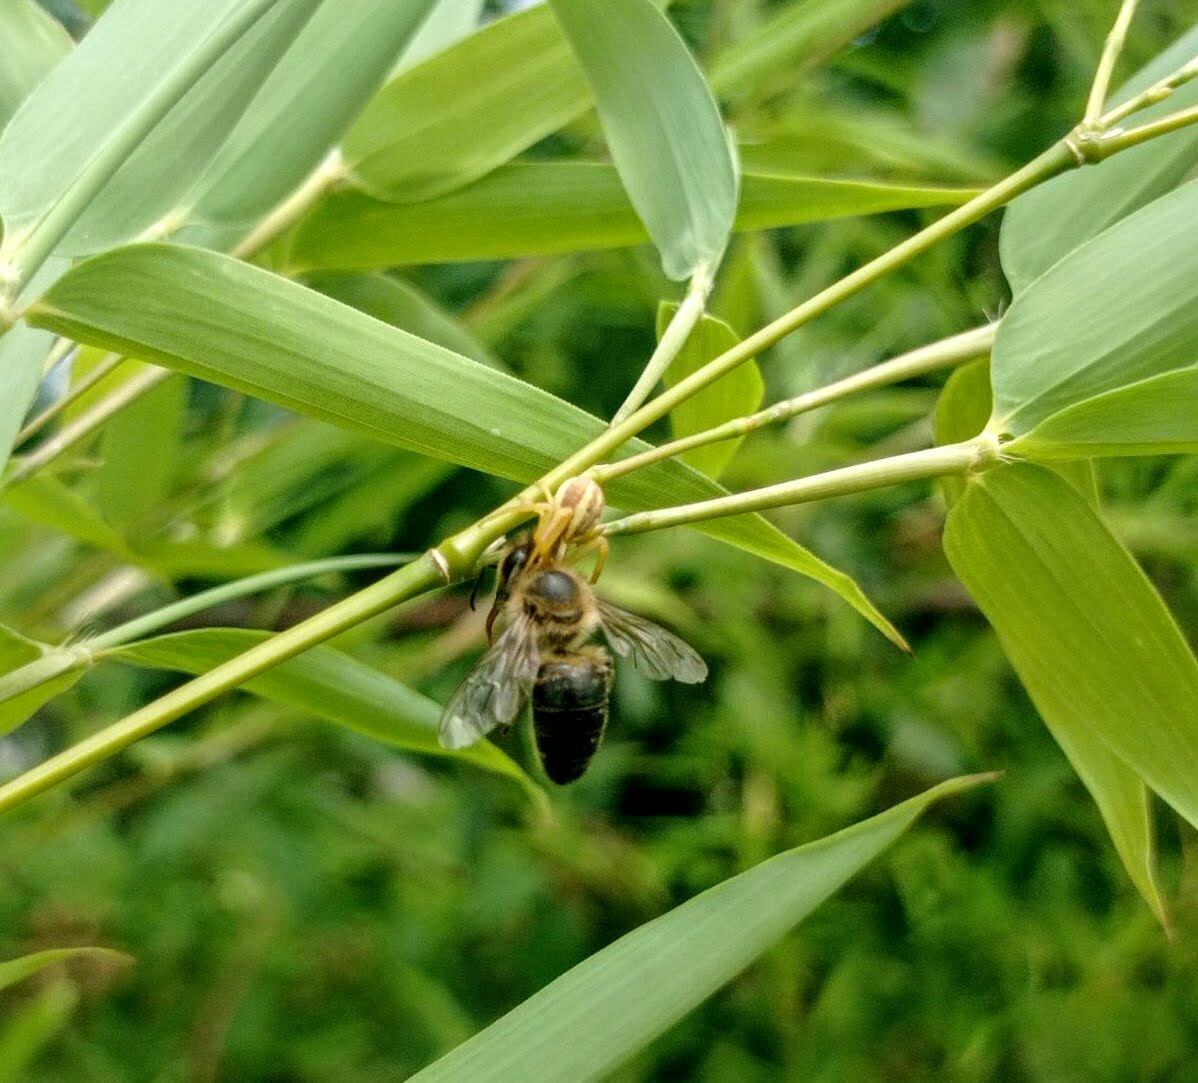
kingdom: Animalia
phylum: Arthropoda
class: Insecta
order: Hymenoptera
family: Apidae
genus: Apis
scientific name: Apis mellifera
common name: Honey bee
